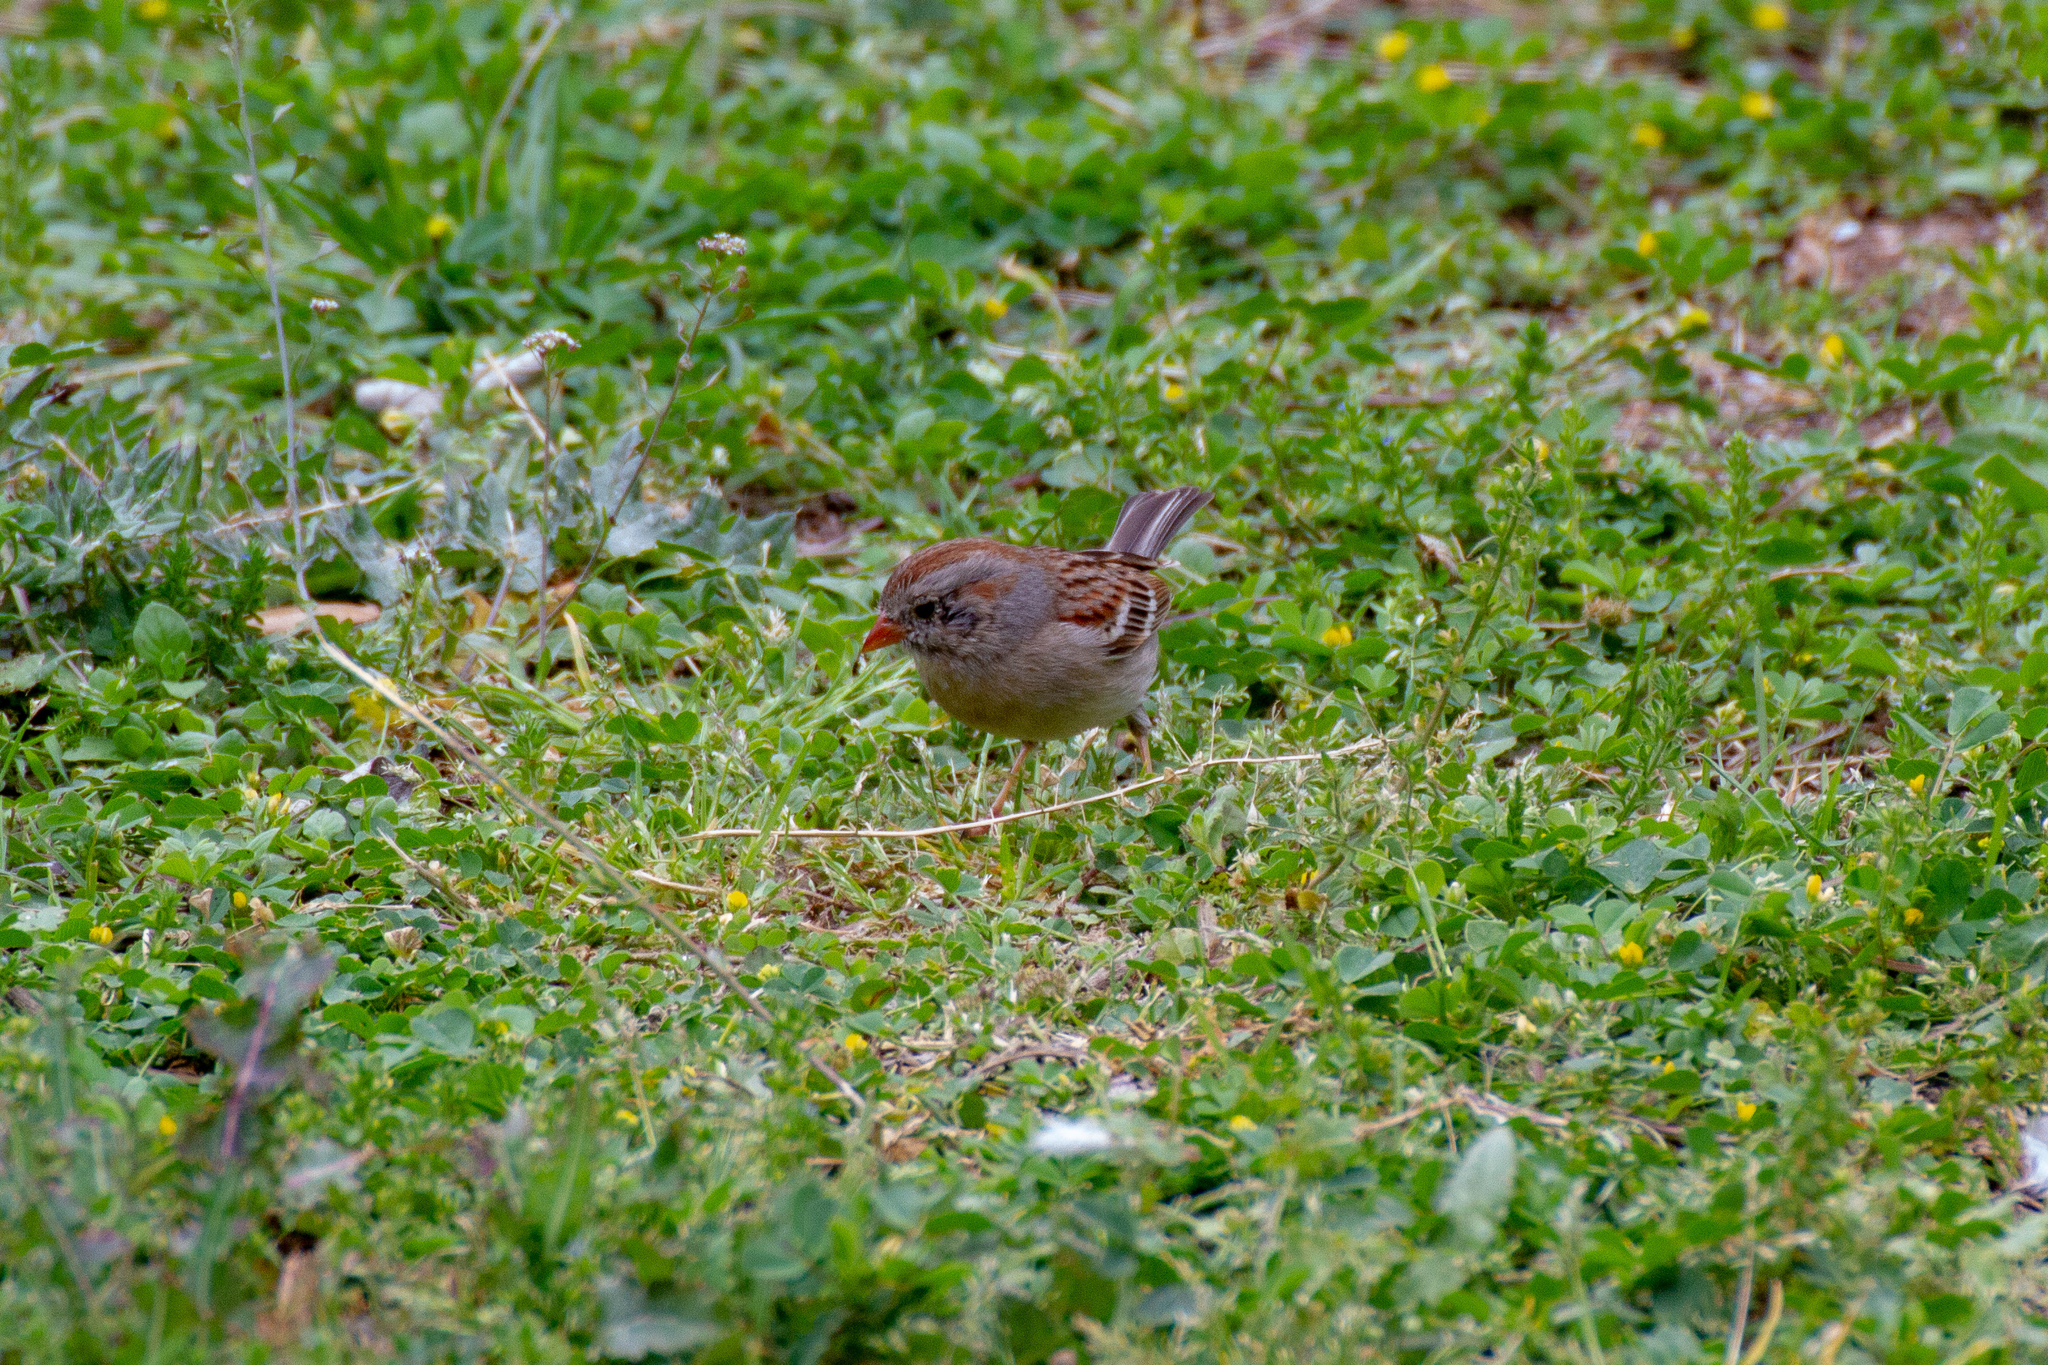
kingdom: Animalia
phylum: Chordata
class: Aves
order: Passeriformes
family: Passerellidae
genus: Spizella
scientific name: Spizella pusilla
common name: Field sparrow
